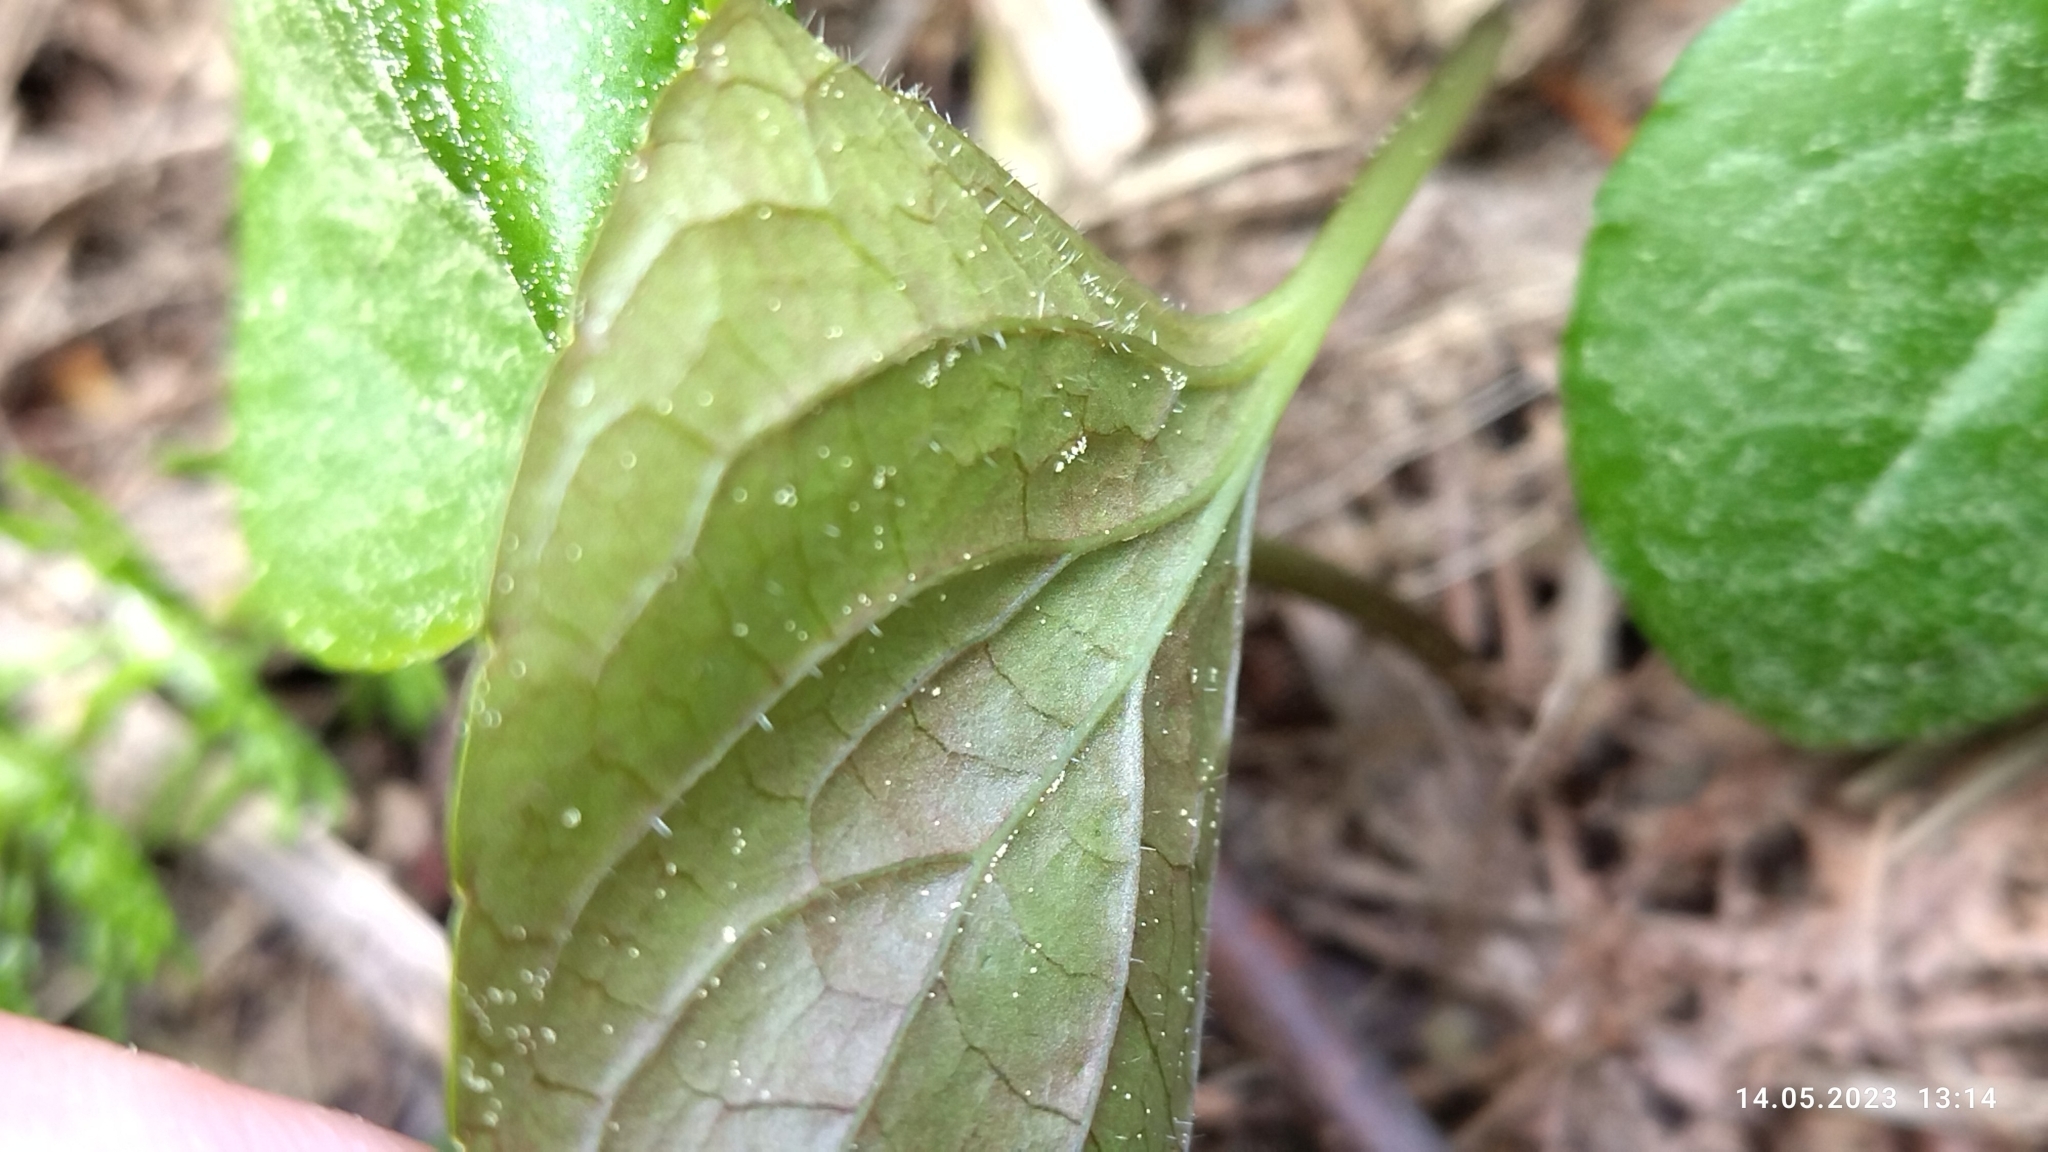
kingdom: Plantae
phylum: Tracheophyta
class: Magnoliopsida
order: Malpighiales
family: Violaceae
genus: Viola
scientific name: Viola epipsila
